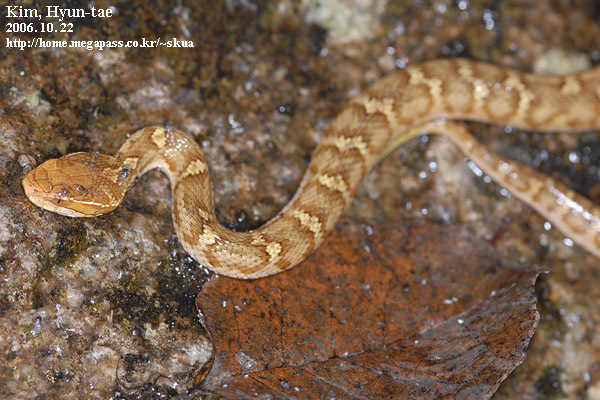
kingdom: Animalia
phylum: Chordata
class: Squamata
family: Viperidae
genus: Gloydius
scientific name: Gloydius ussuriensis
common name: Ussuri mamushi
